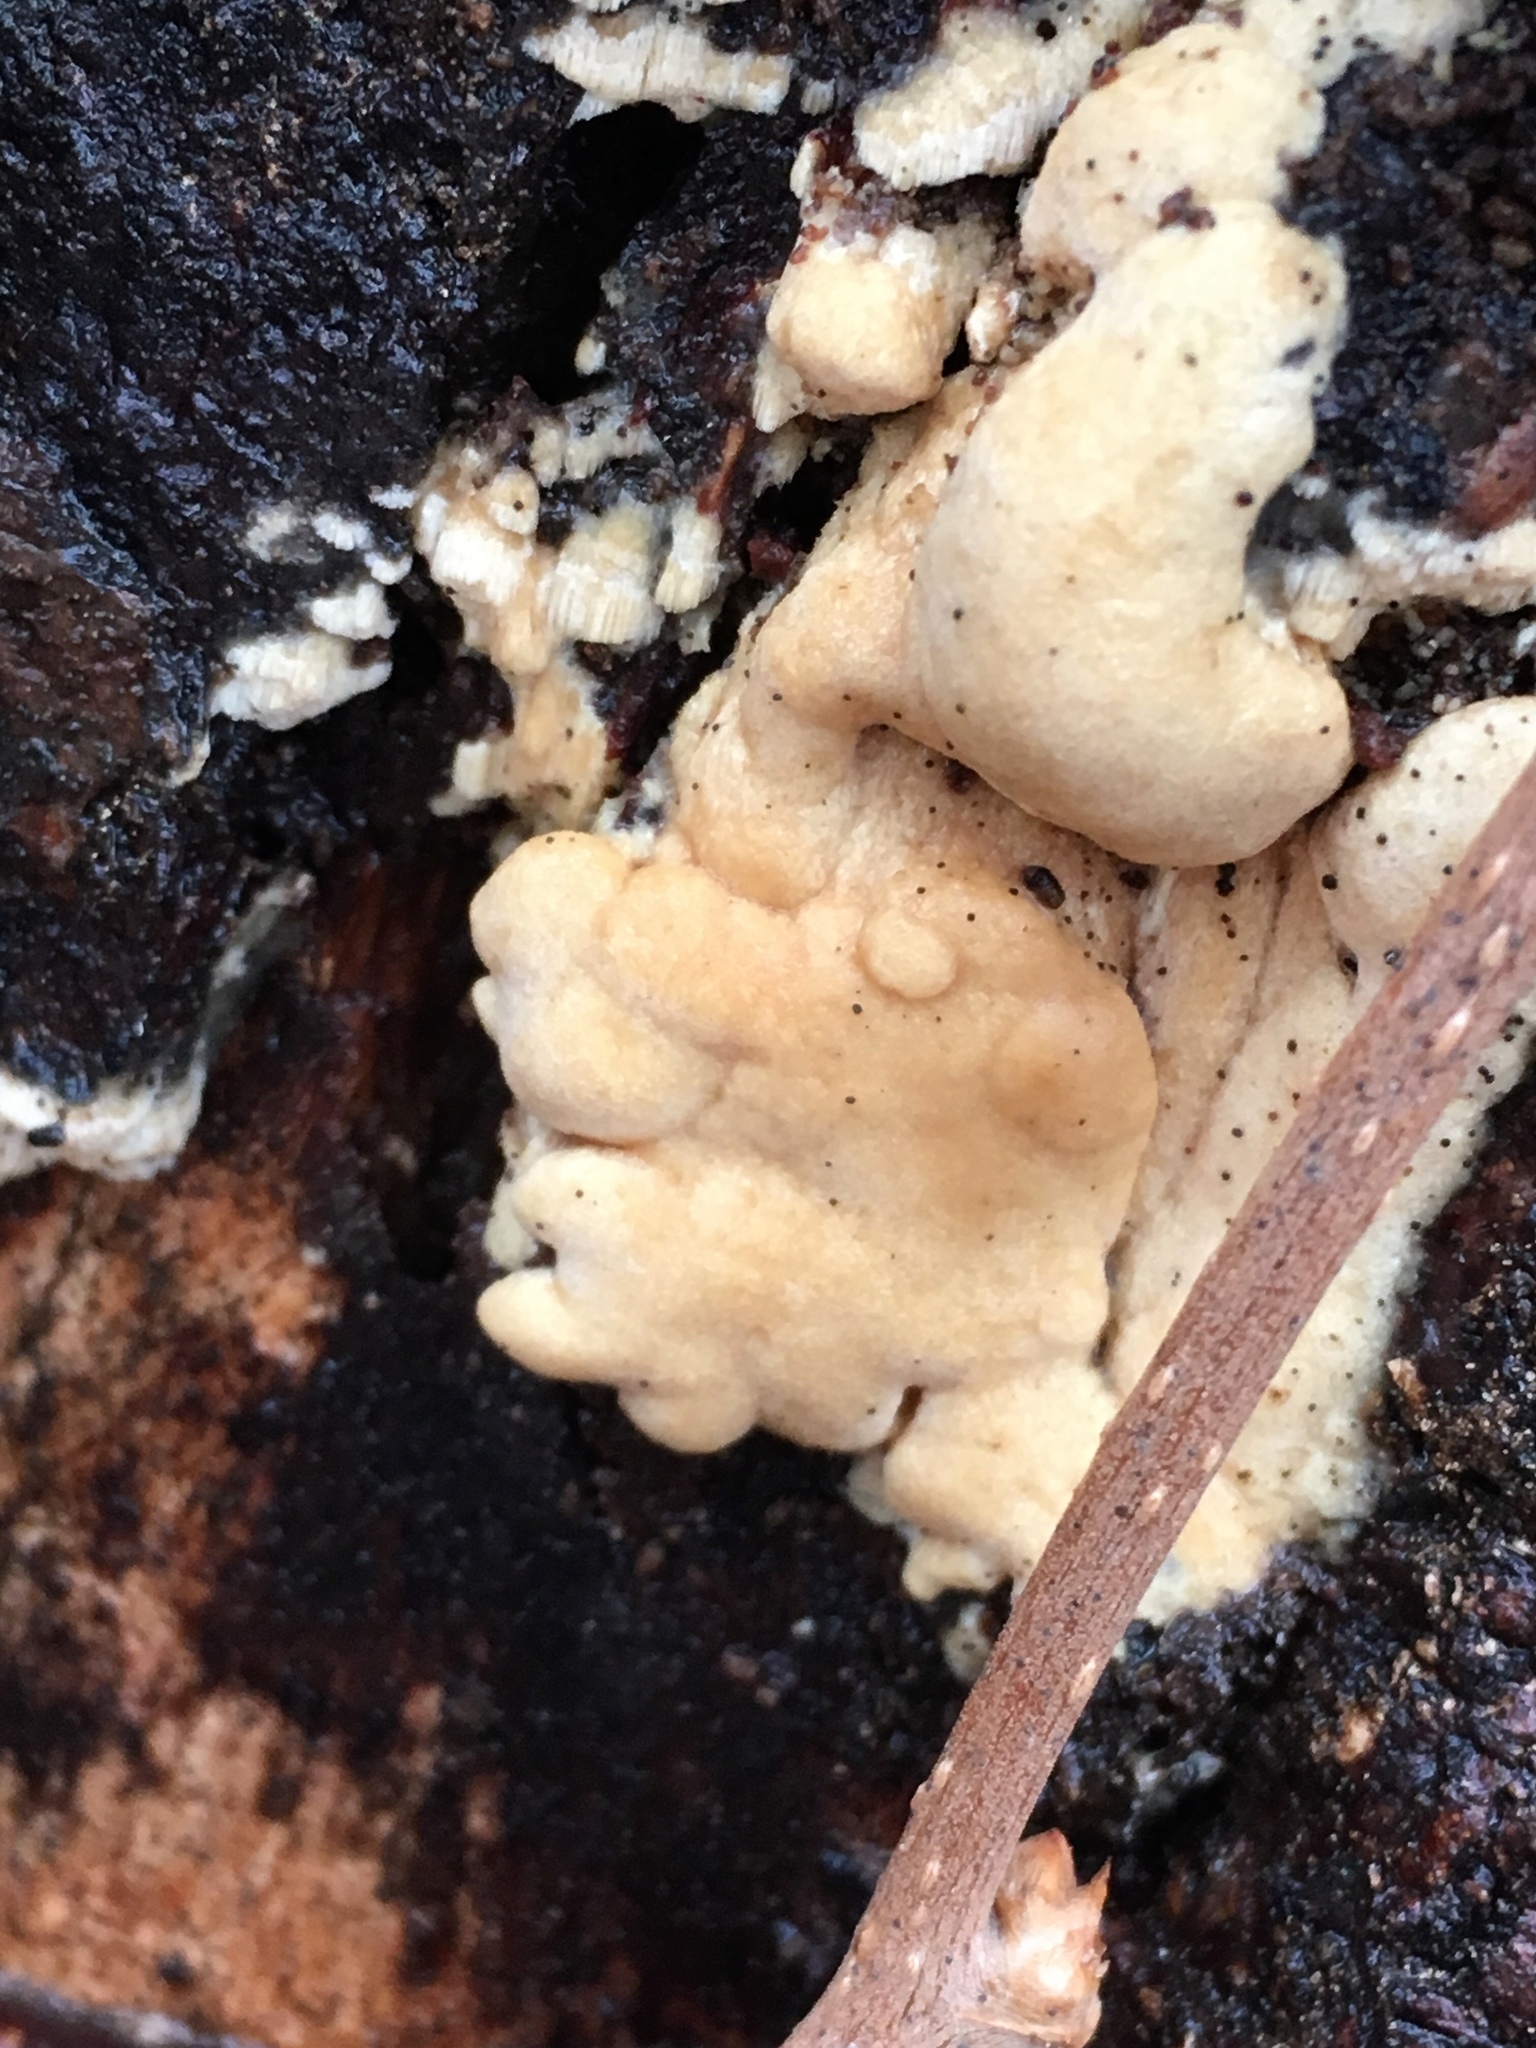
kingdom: Fungi
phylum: Ascomycota
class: Sordariomycetes
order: Hypocreales
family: Hypocreaceae
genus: Trichoderma
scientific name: Trichoderma sulphureum
